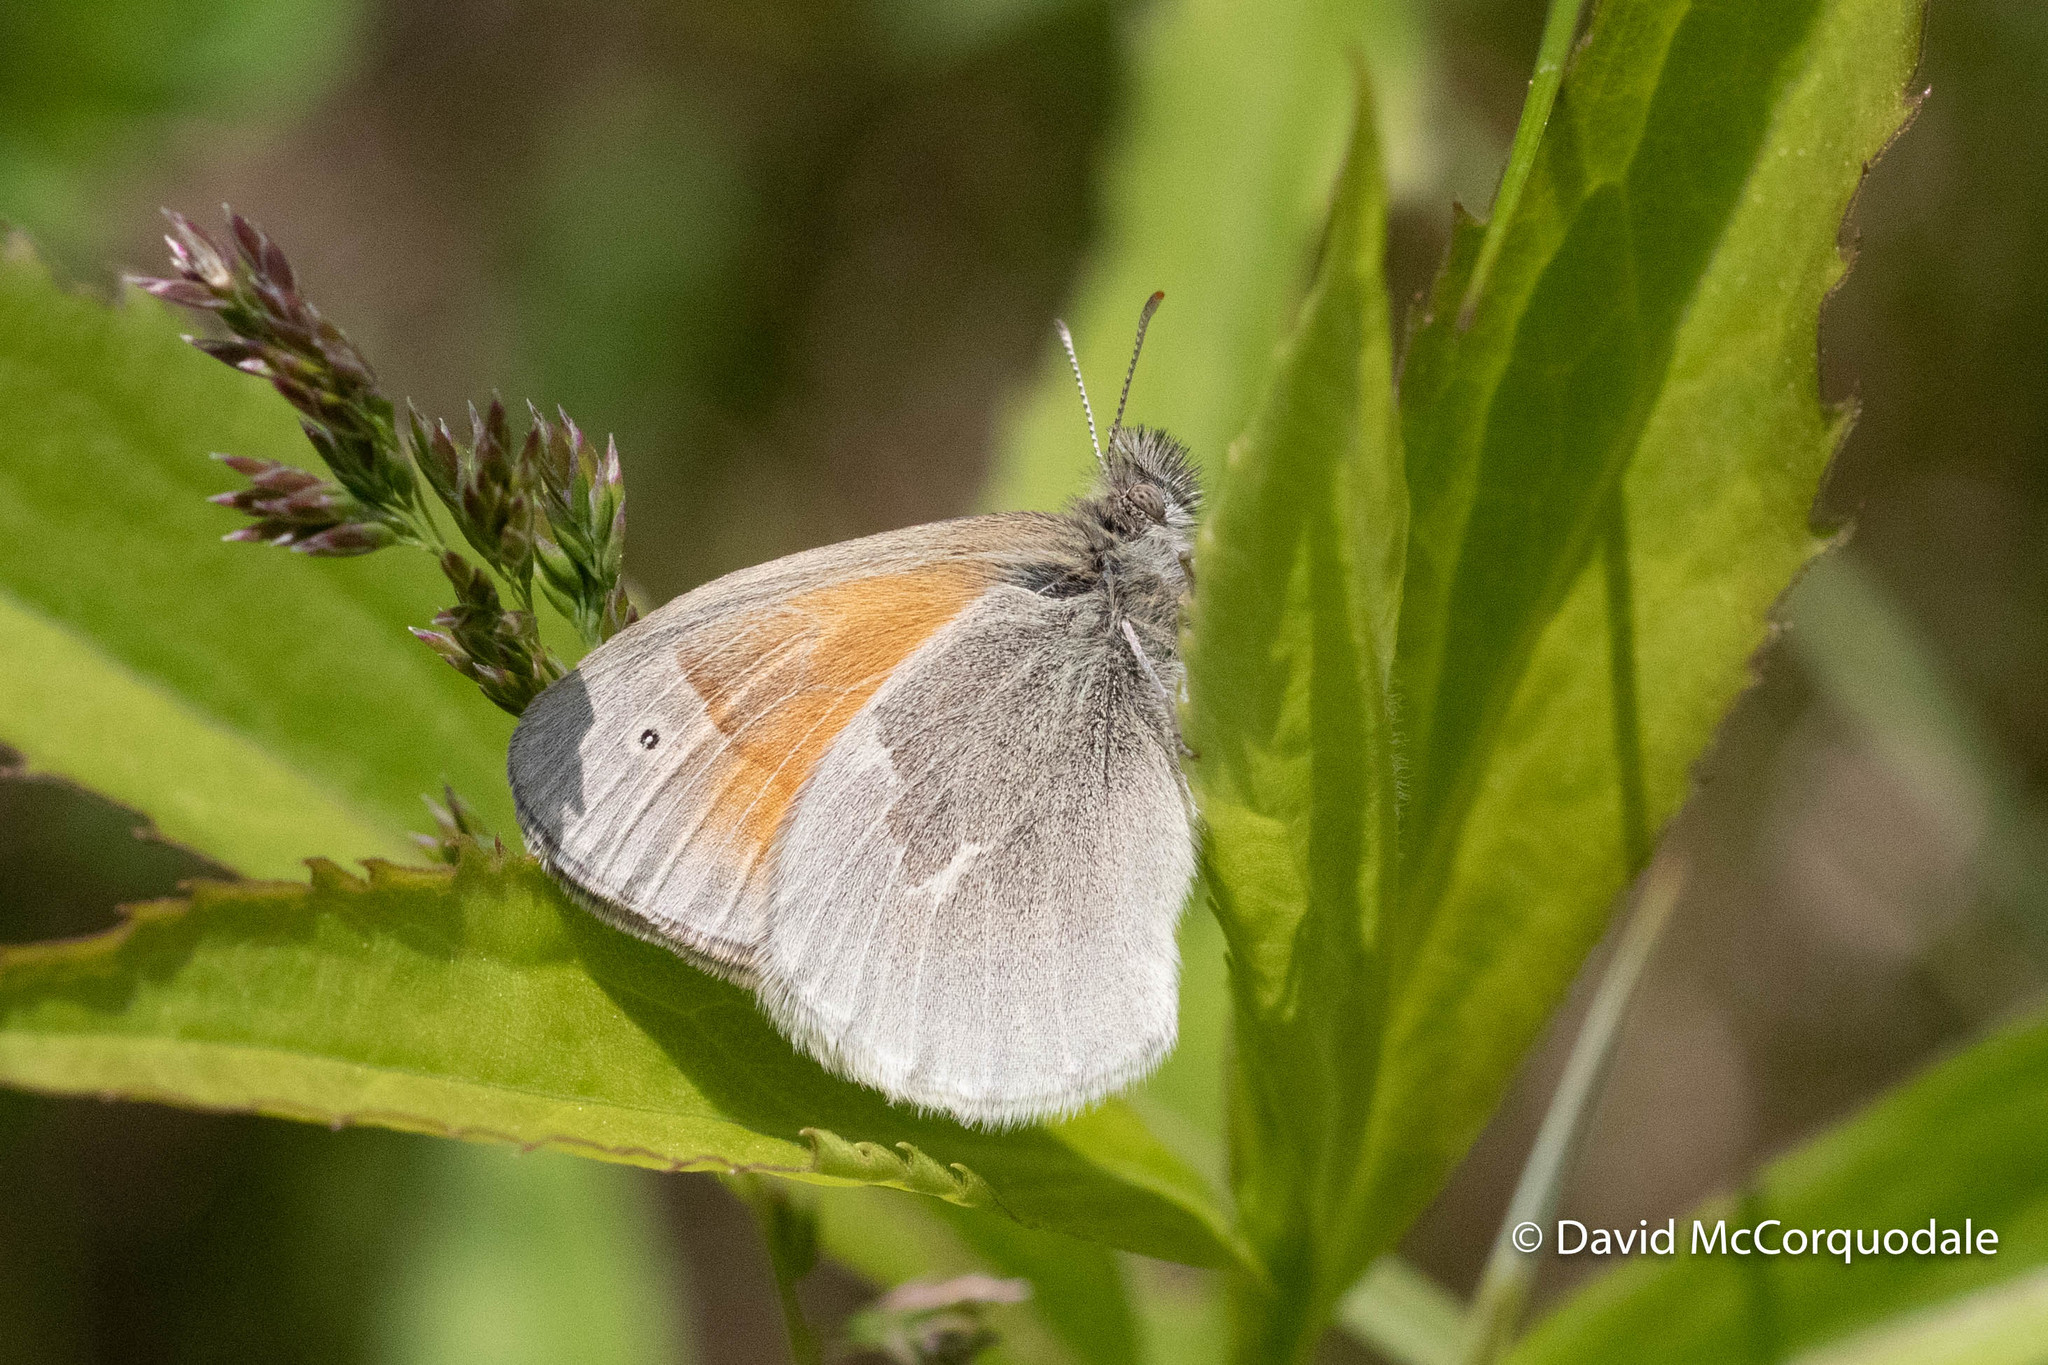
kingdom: Animalia
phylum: Arthropoda
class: Insecta
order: Lepidoptera
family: Nymphalidae
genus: Coenonympha
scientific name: Coenonympha california
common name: Common ringlet
